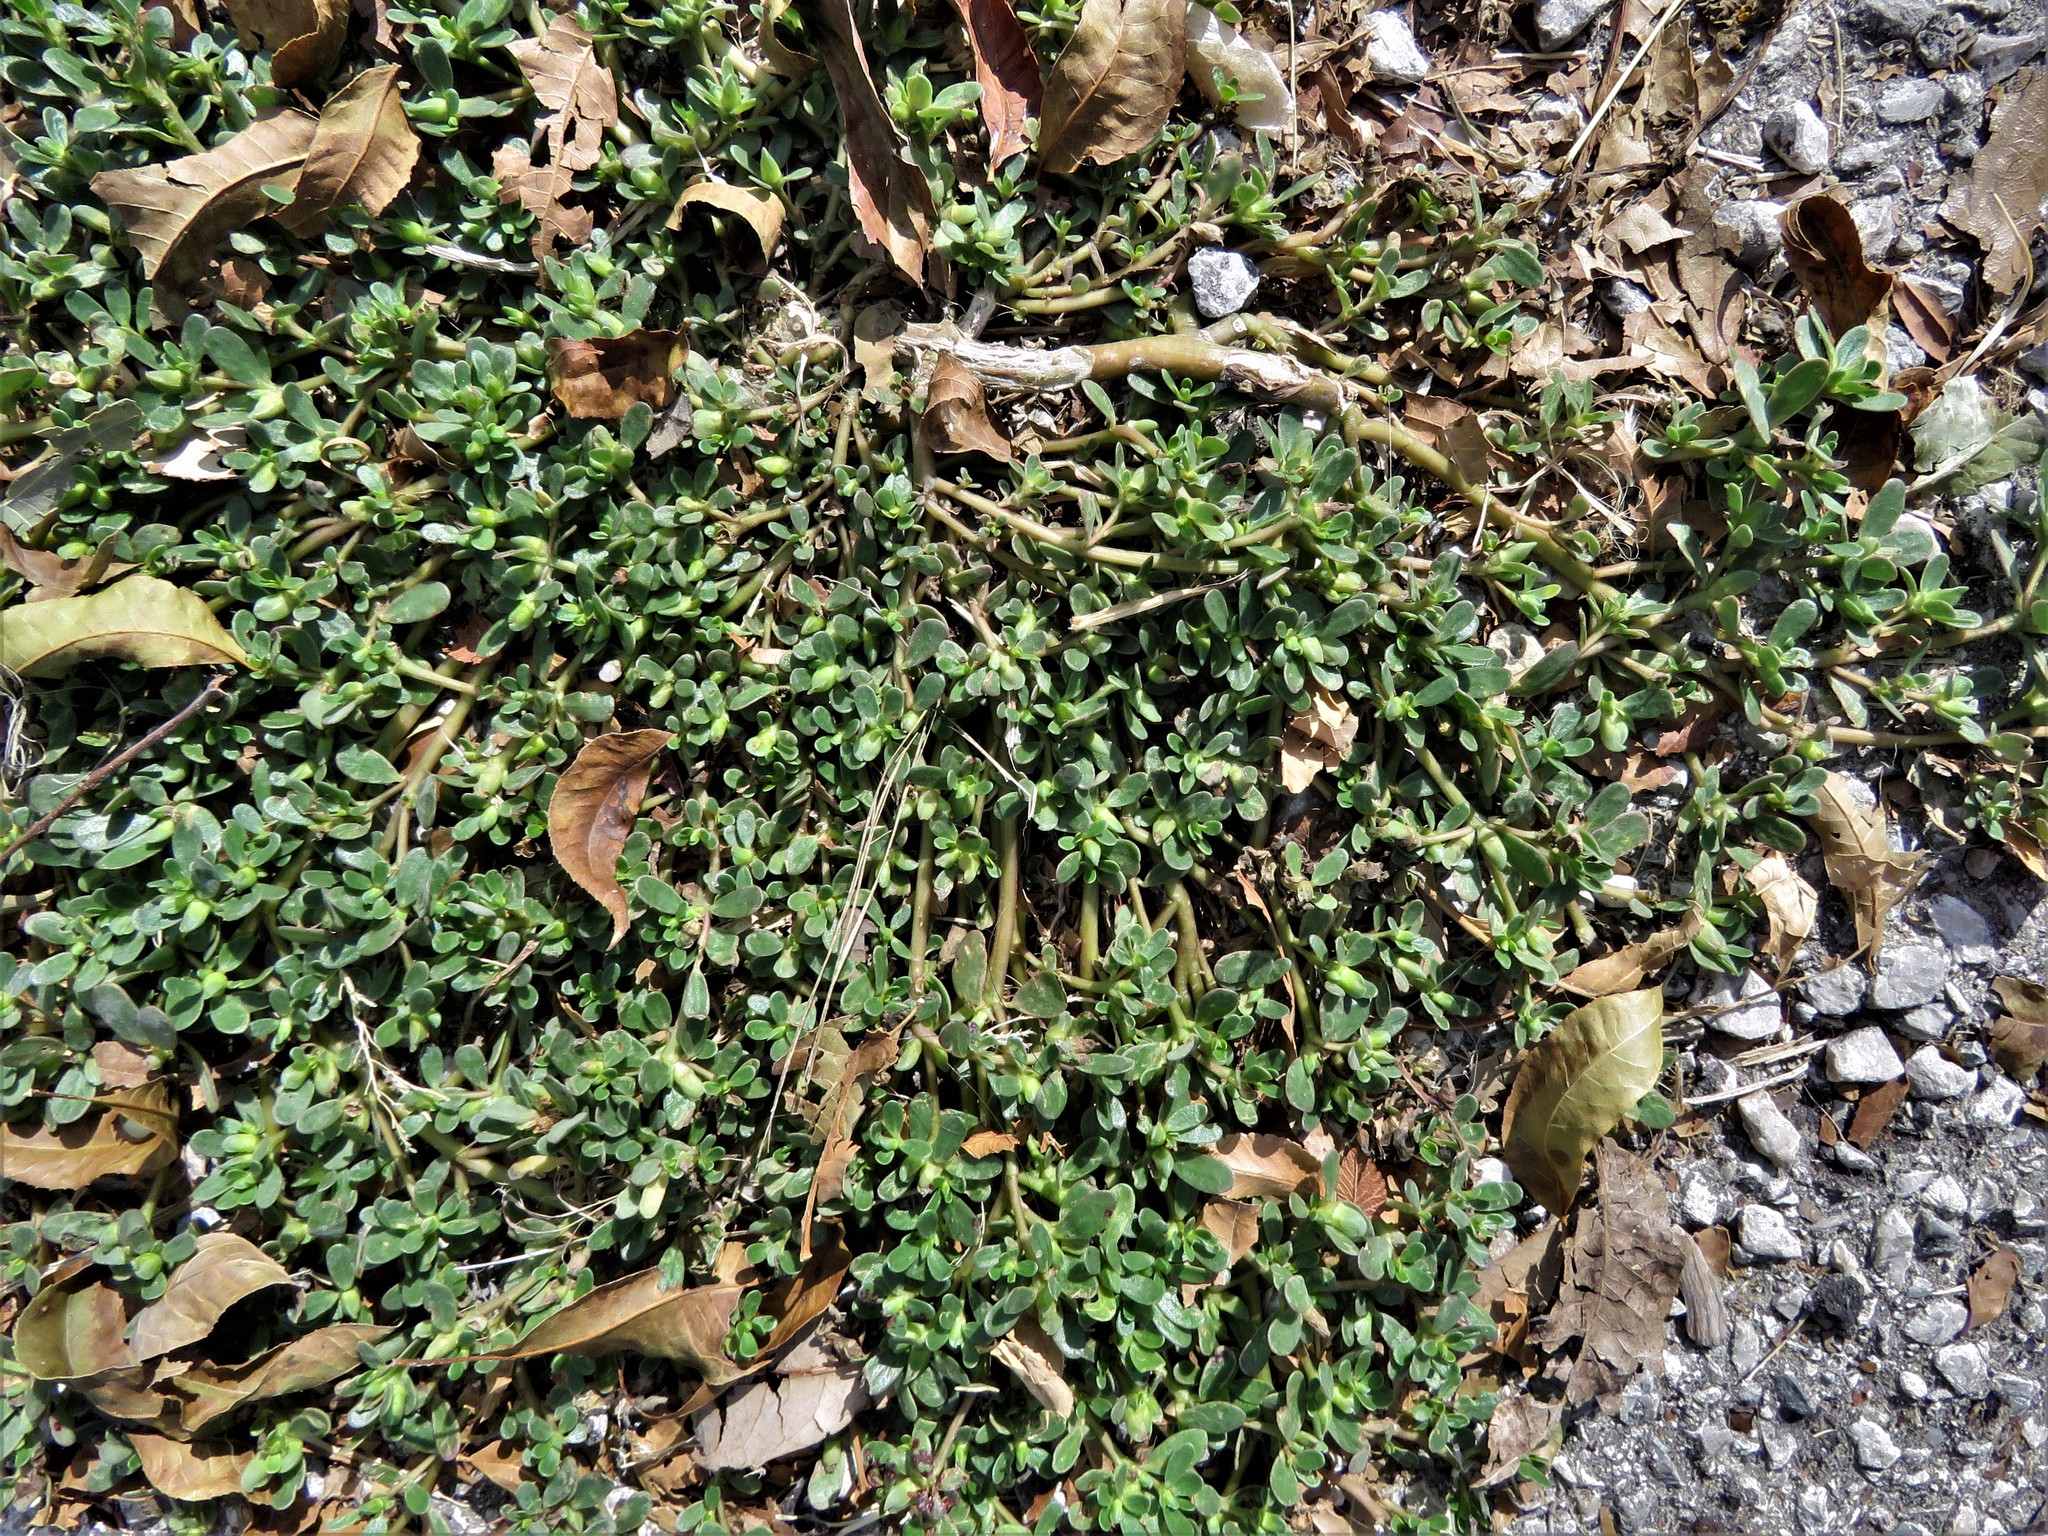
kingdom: Plantae
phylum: Tracheophyta
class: Magnoliopsida
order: Caryophyllales
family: Portulacaceae
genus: Portulaca
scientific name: Portulaca oleracea
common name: Common purslane
